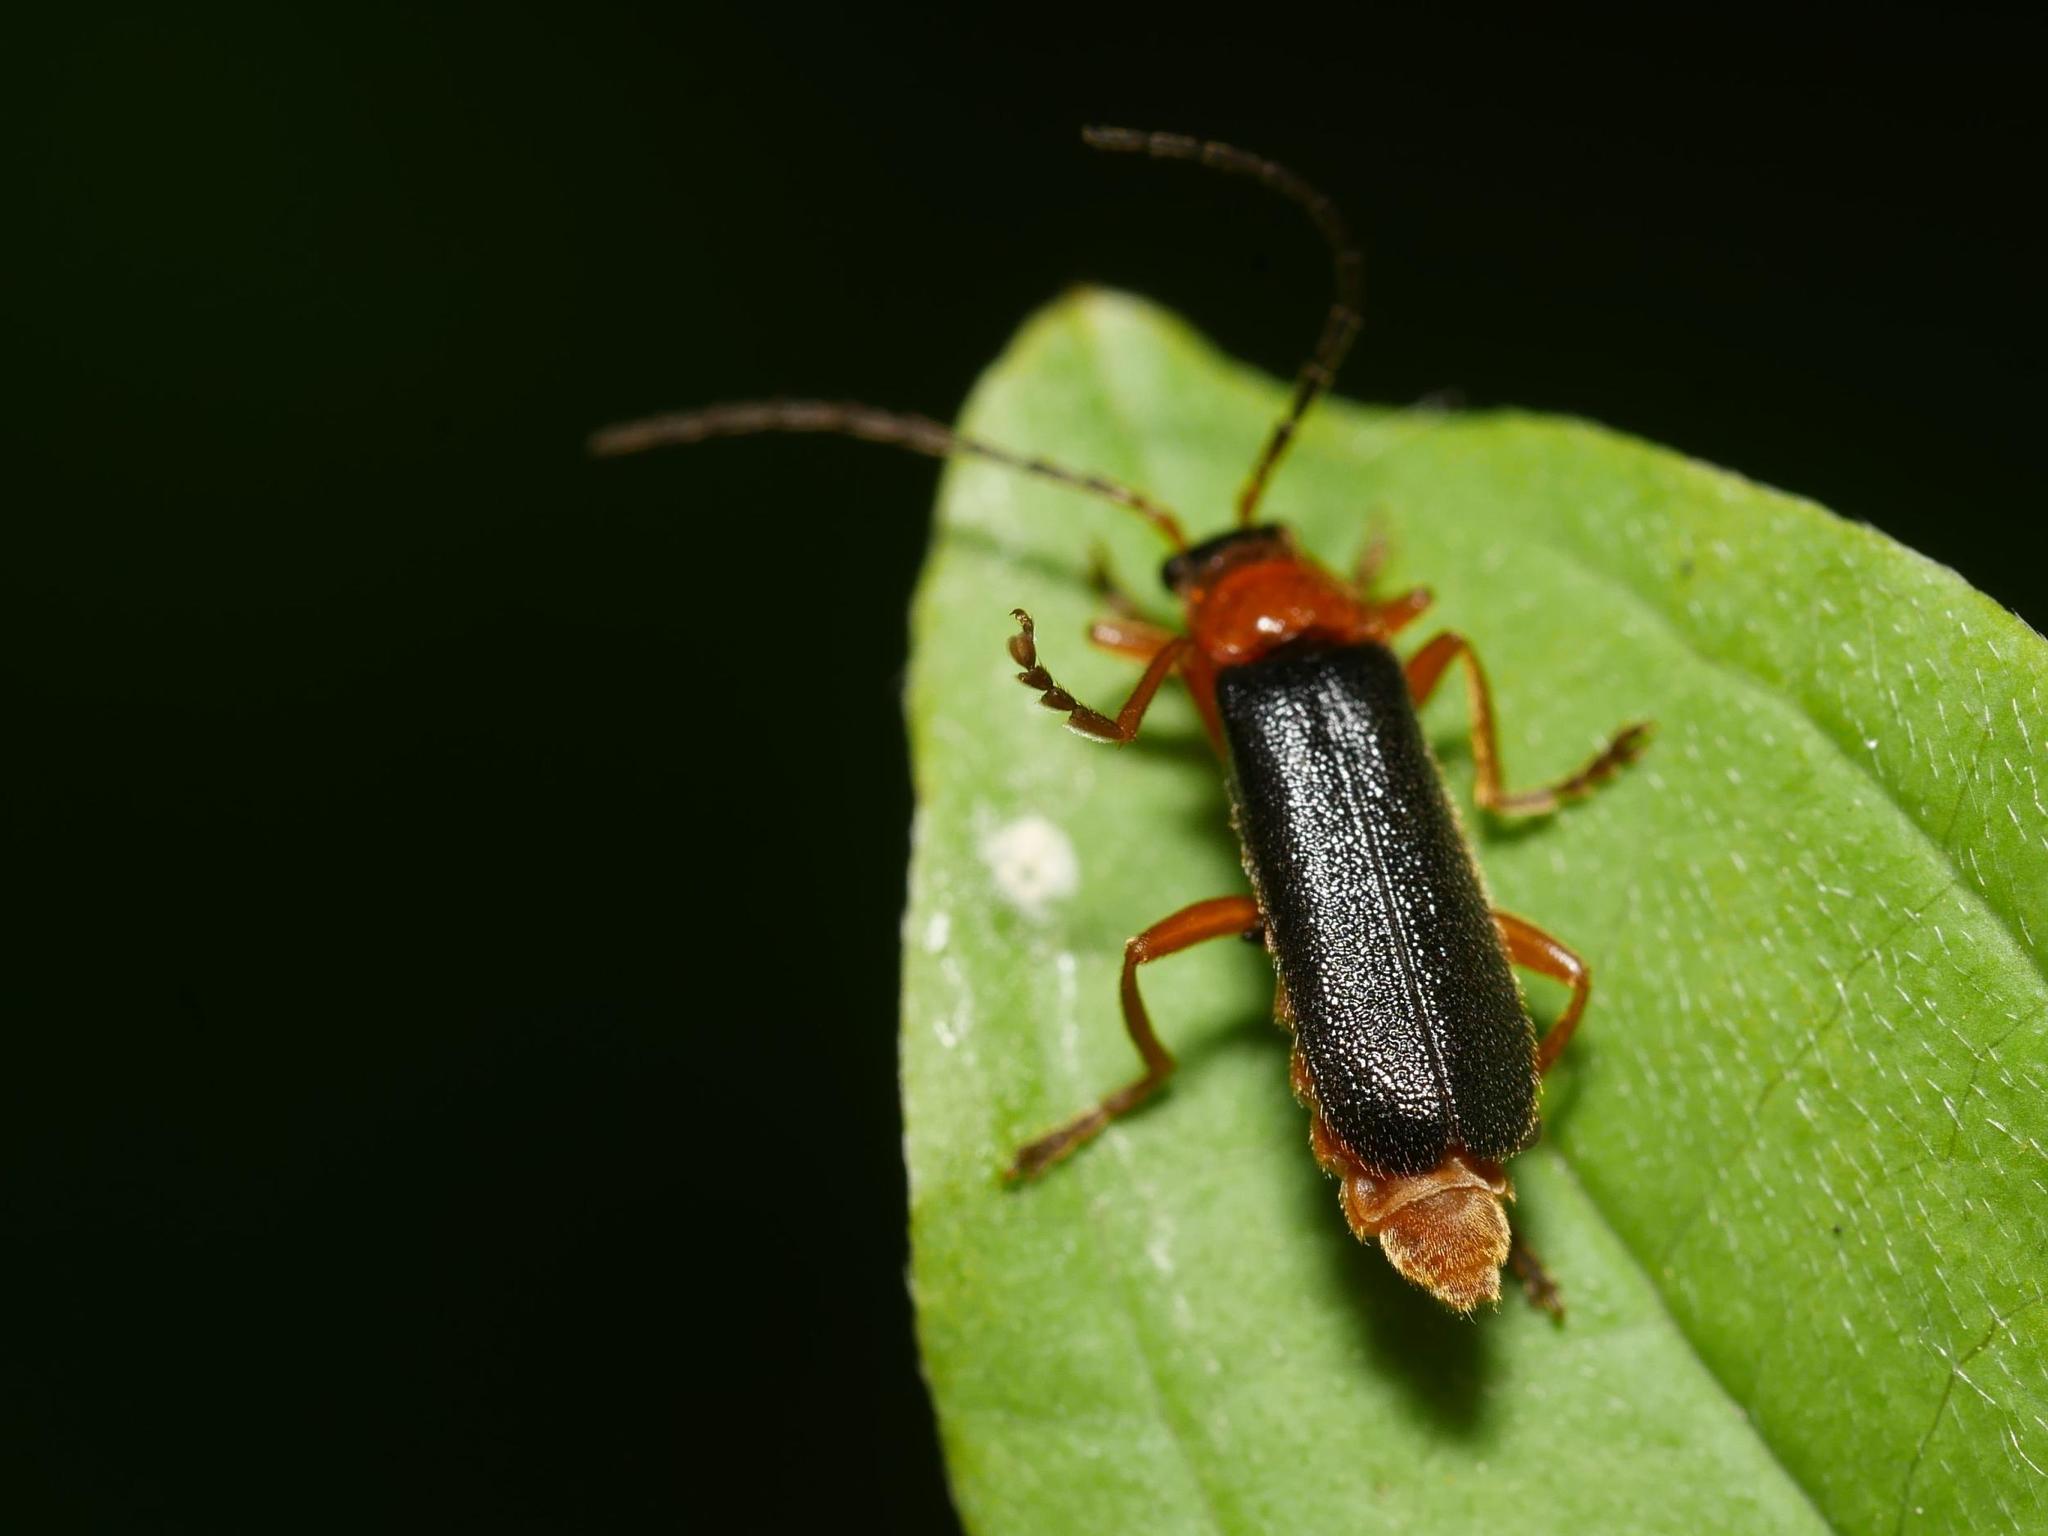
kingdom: Animalia
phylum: Arthropoda
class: Insecta
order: Coleoptera
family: Cantharidae
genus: Cantharis
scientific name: Cantharis flavilabris
